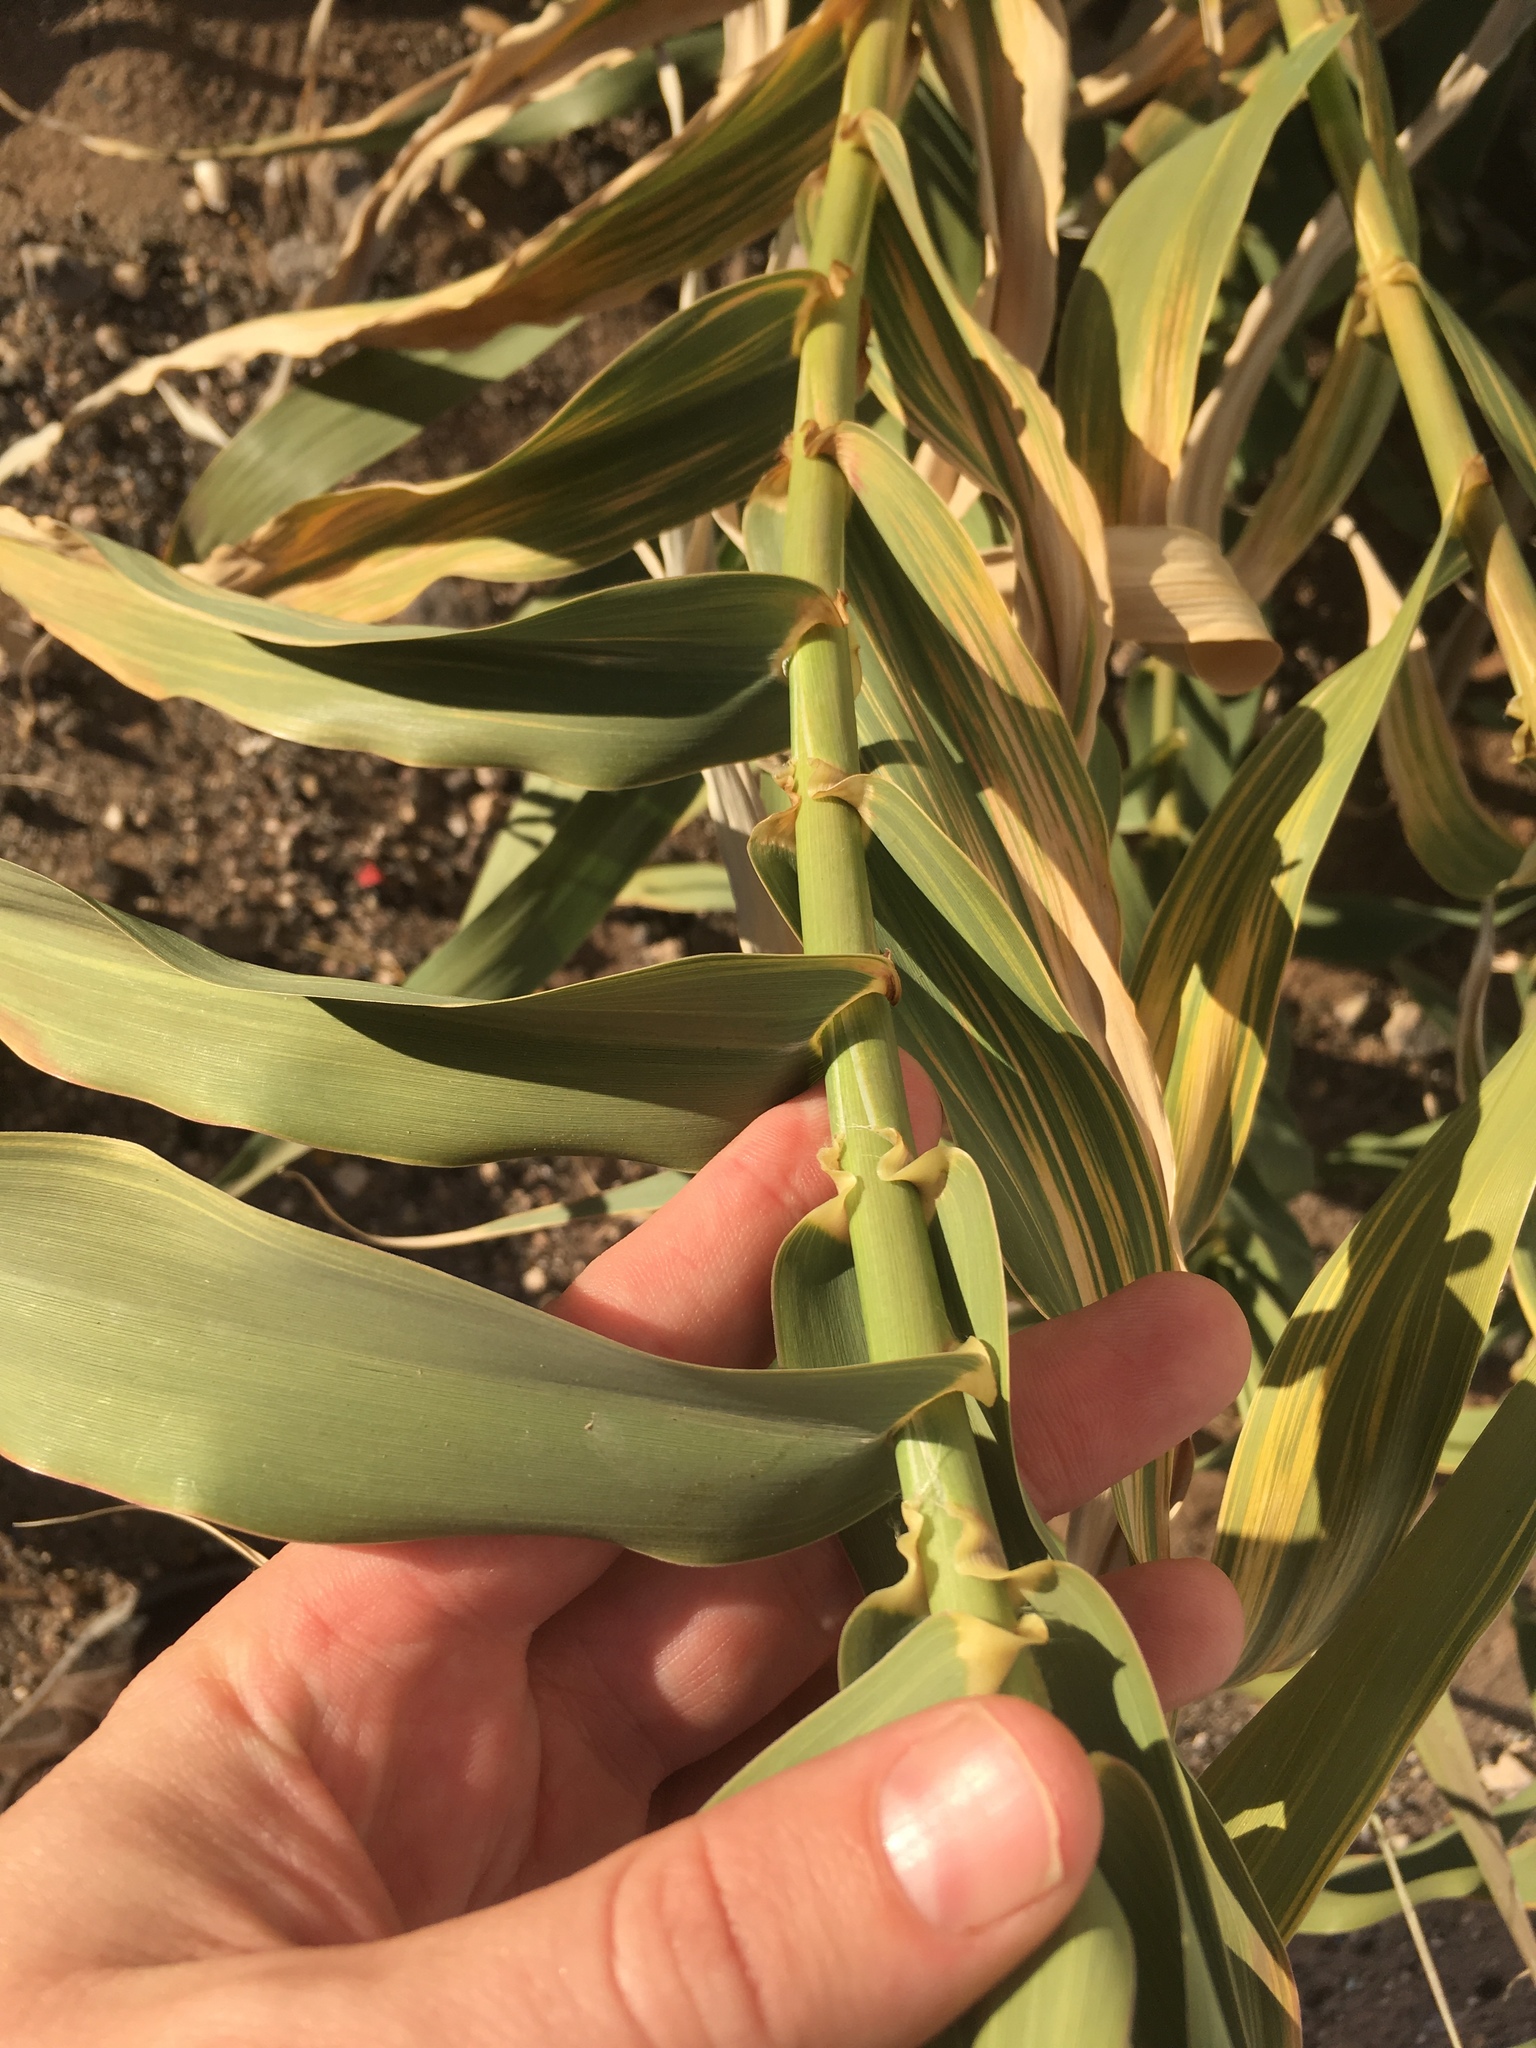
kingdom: Plantae
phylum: Tracheophyta
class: Liliopsida
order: Poales
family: Poaceae
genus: Arundo
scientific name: Arundo donax
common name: Giant reed
